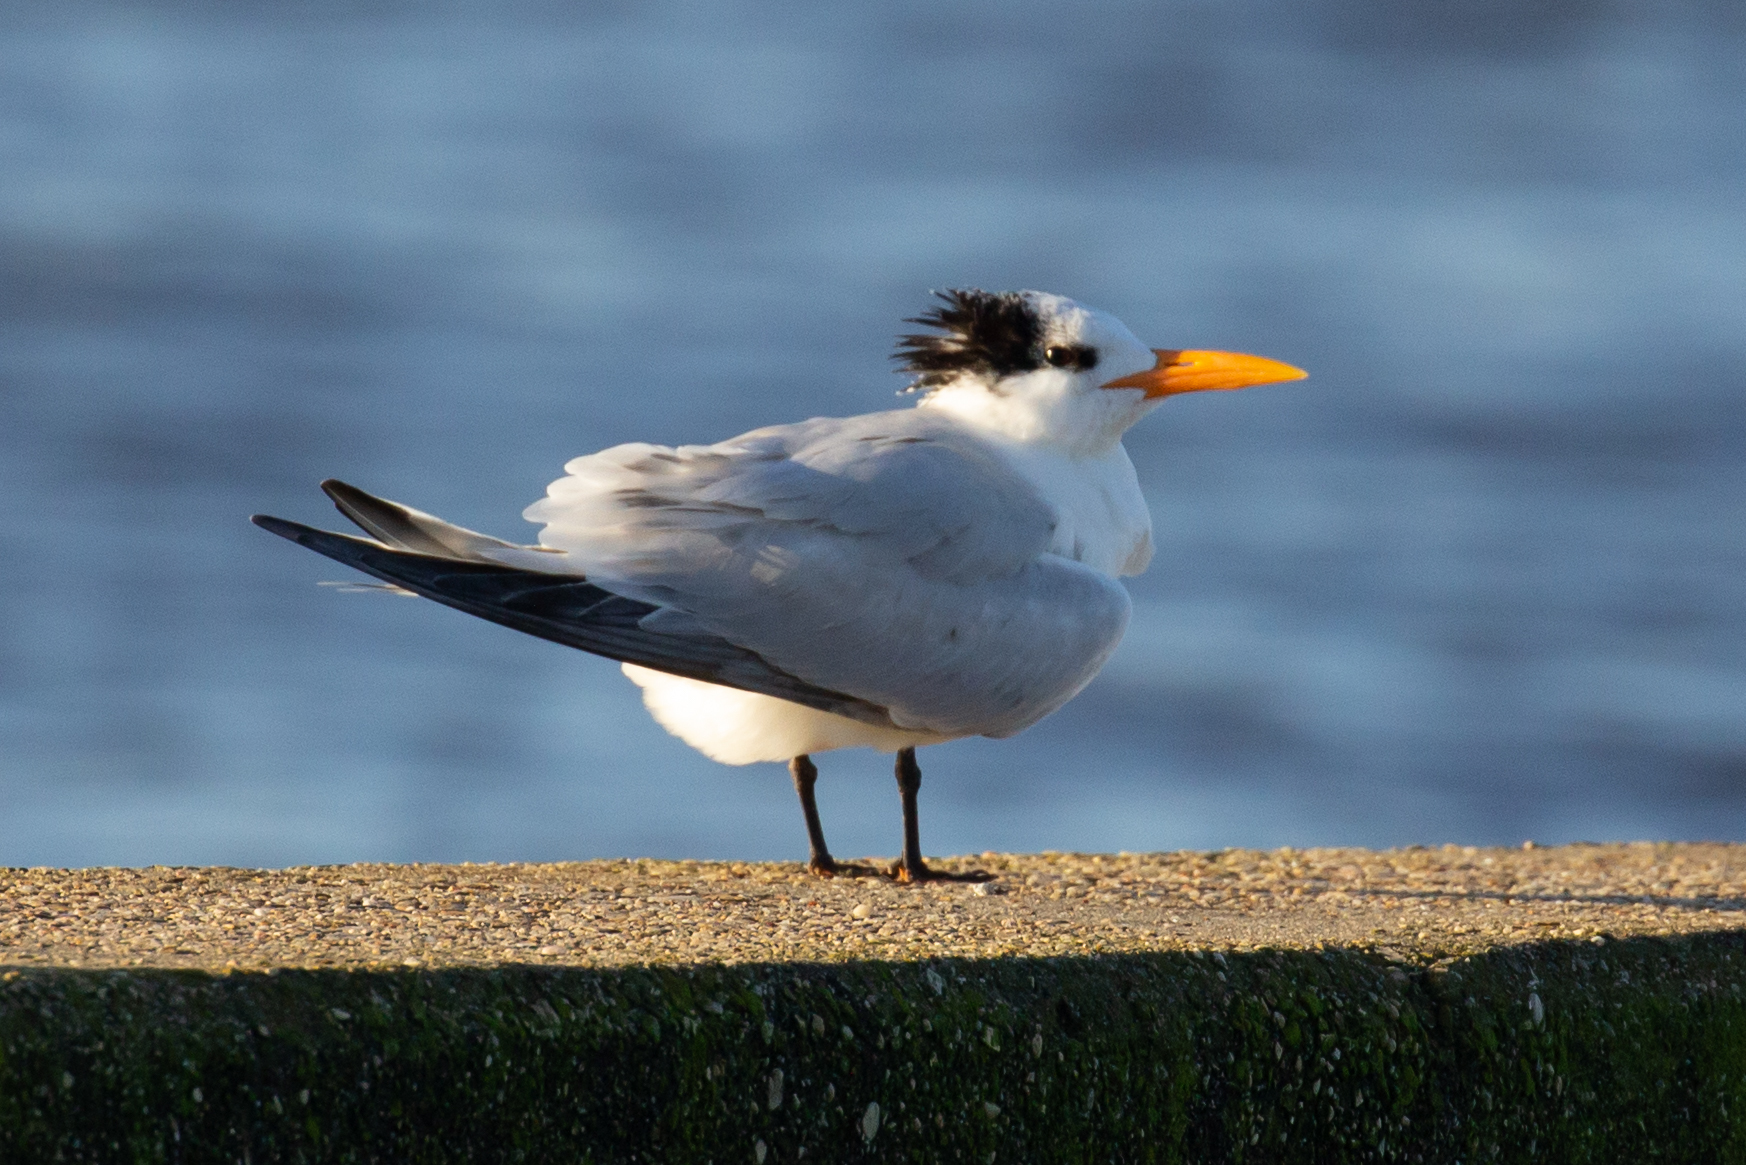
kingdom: Animalia
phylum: Chordata
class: Aves
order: Charadriiformes
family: Laridae
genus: Thalasseus
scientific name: Thalasseus maximus
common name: Royal tern
